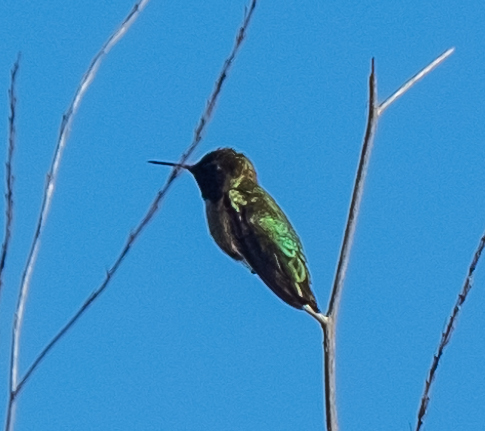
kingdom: Animalia
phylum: Chordata
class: Aves
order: Apodiformes
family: Trochilidae
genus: Calypte
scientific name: Calypte anna
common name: Anna's hummingbird
